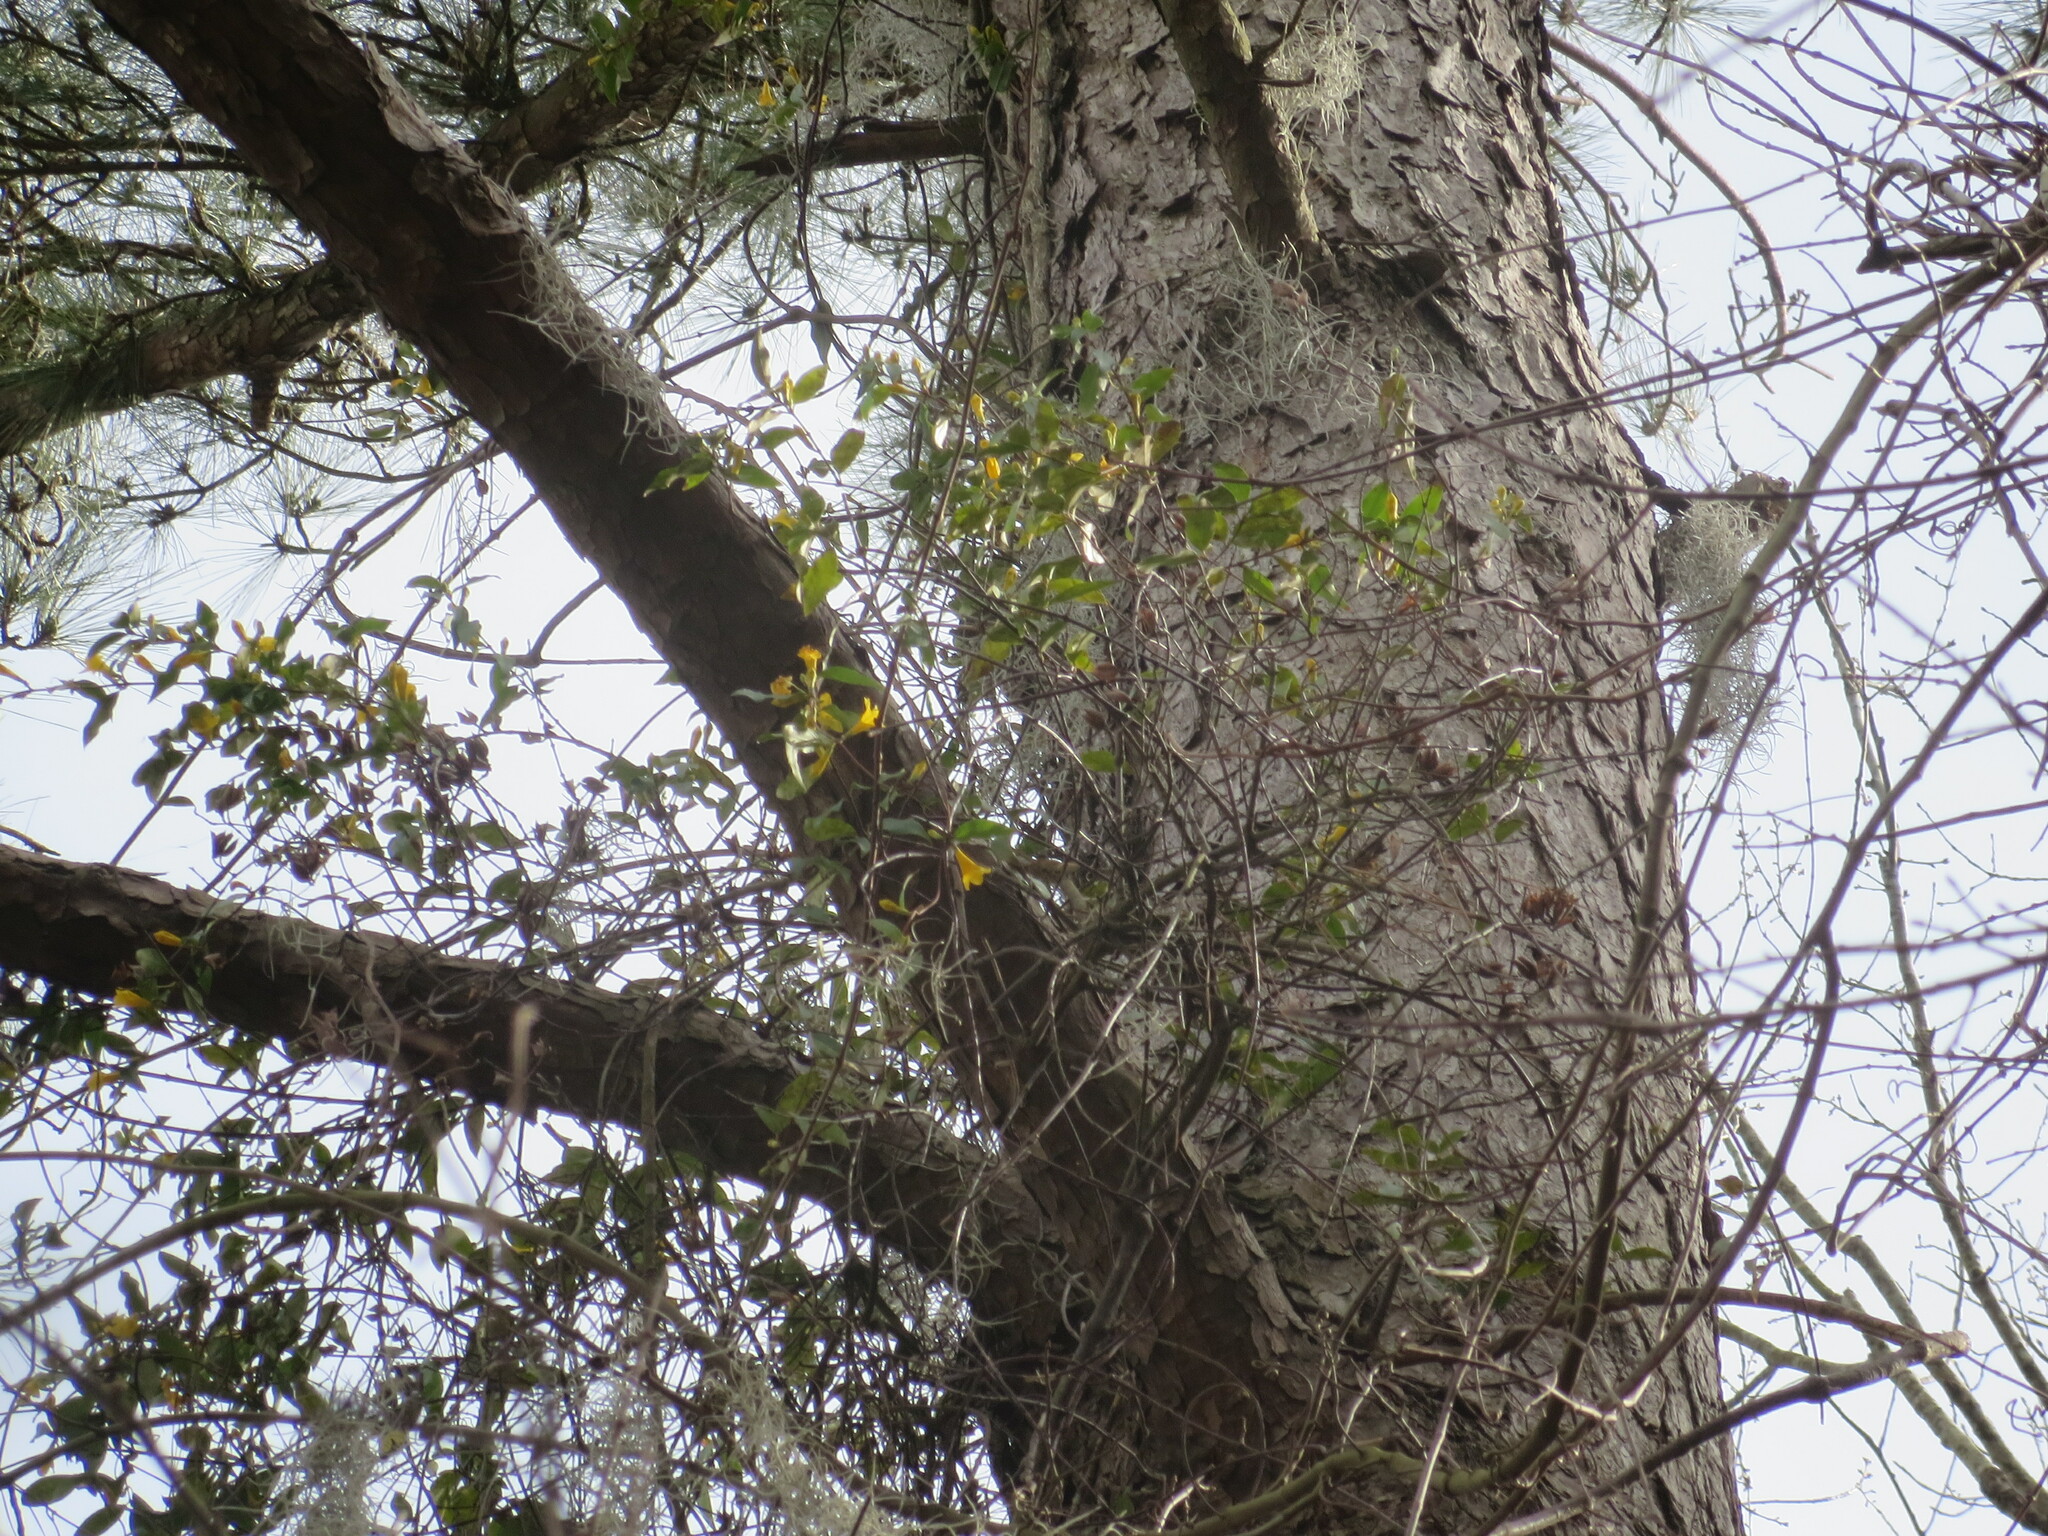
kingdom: Plantae
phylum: Tracheophyta
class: Magnoliopsida
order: Gentianales
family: Gelsemiaceae
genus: Gelsemium
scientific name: Gelsemium sempervirens
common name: Carolina-jasmine
